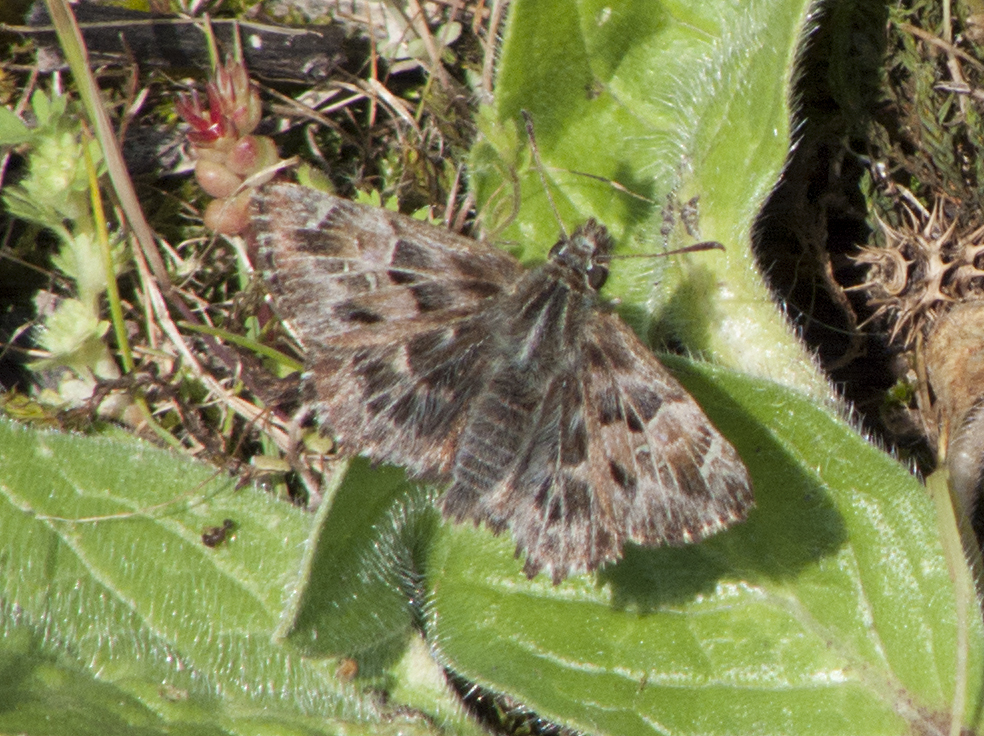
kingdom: Animalia
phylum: Arthropoda
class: Insecta
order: Lepidoptera
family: Hesperiidae
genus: Carcharodus
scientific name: Carcharodus alceae
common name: Mallow skipper
